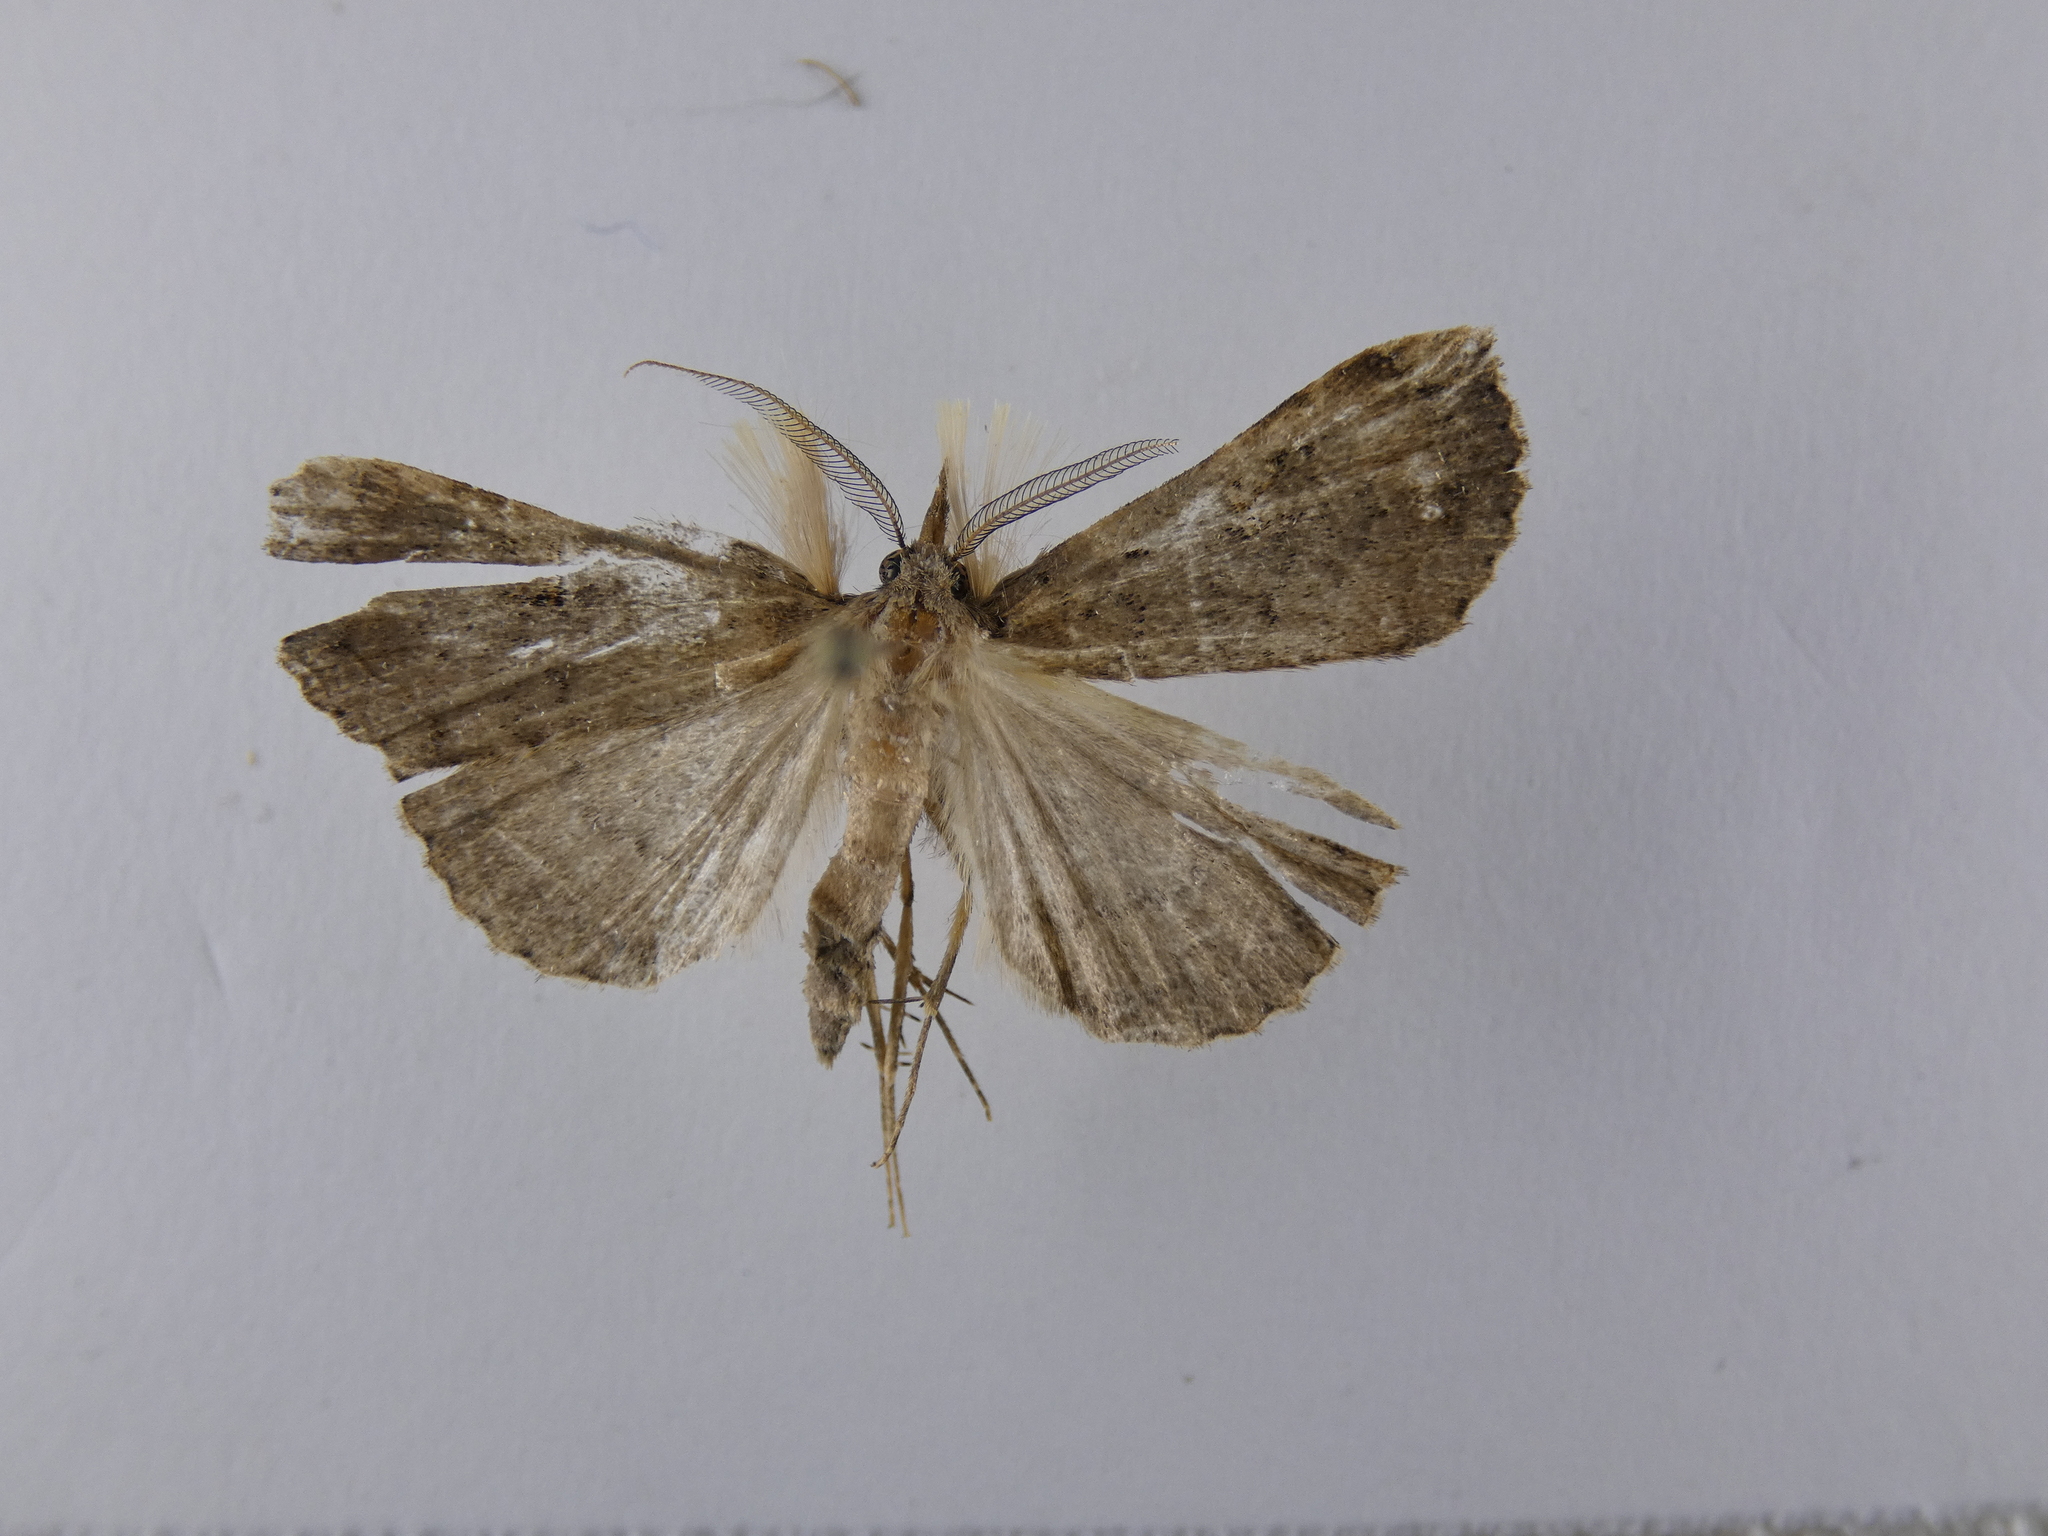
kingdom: Animalia
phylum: Arthropoda
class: Insecta
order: Lepidoptera
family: Erebidae
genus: Rhapsa
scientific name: Rhapsa scotosialis
